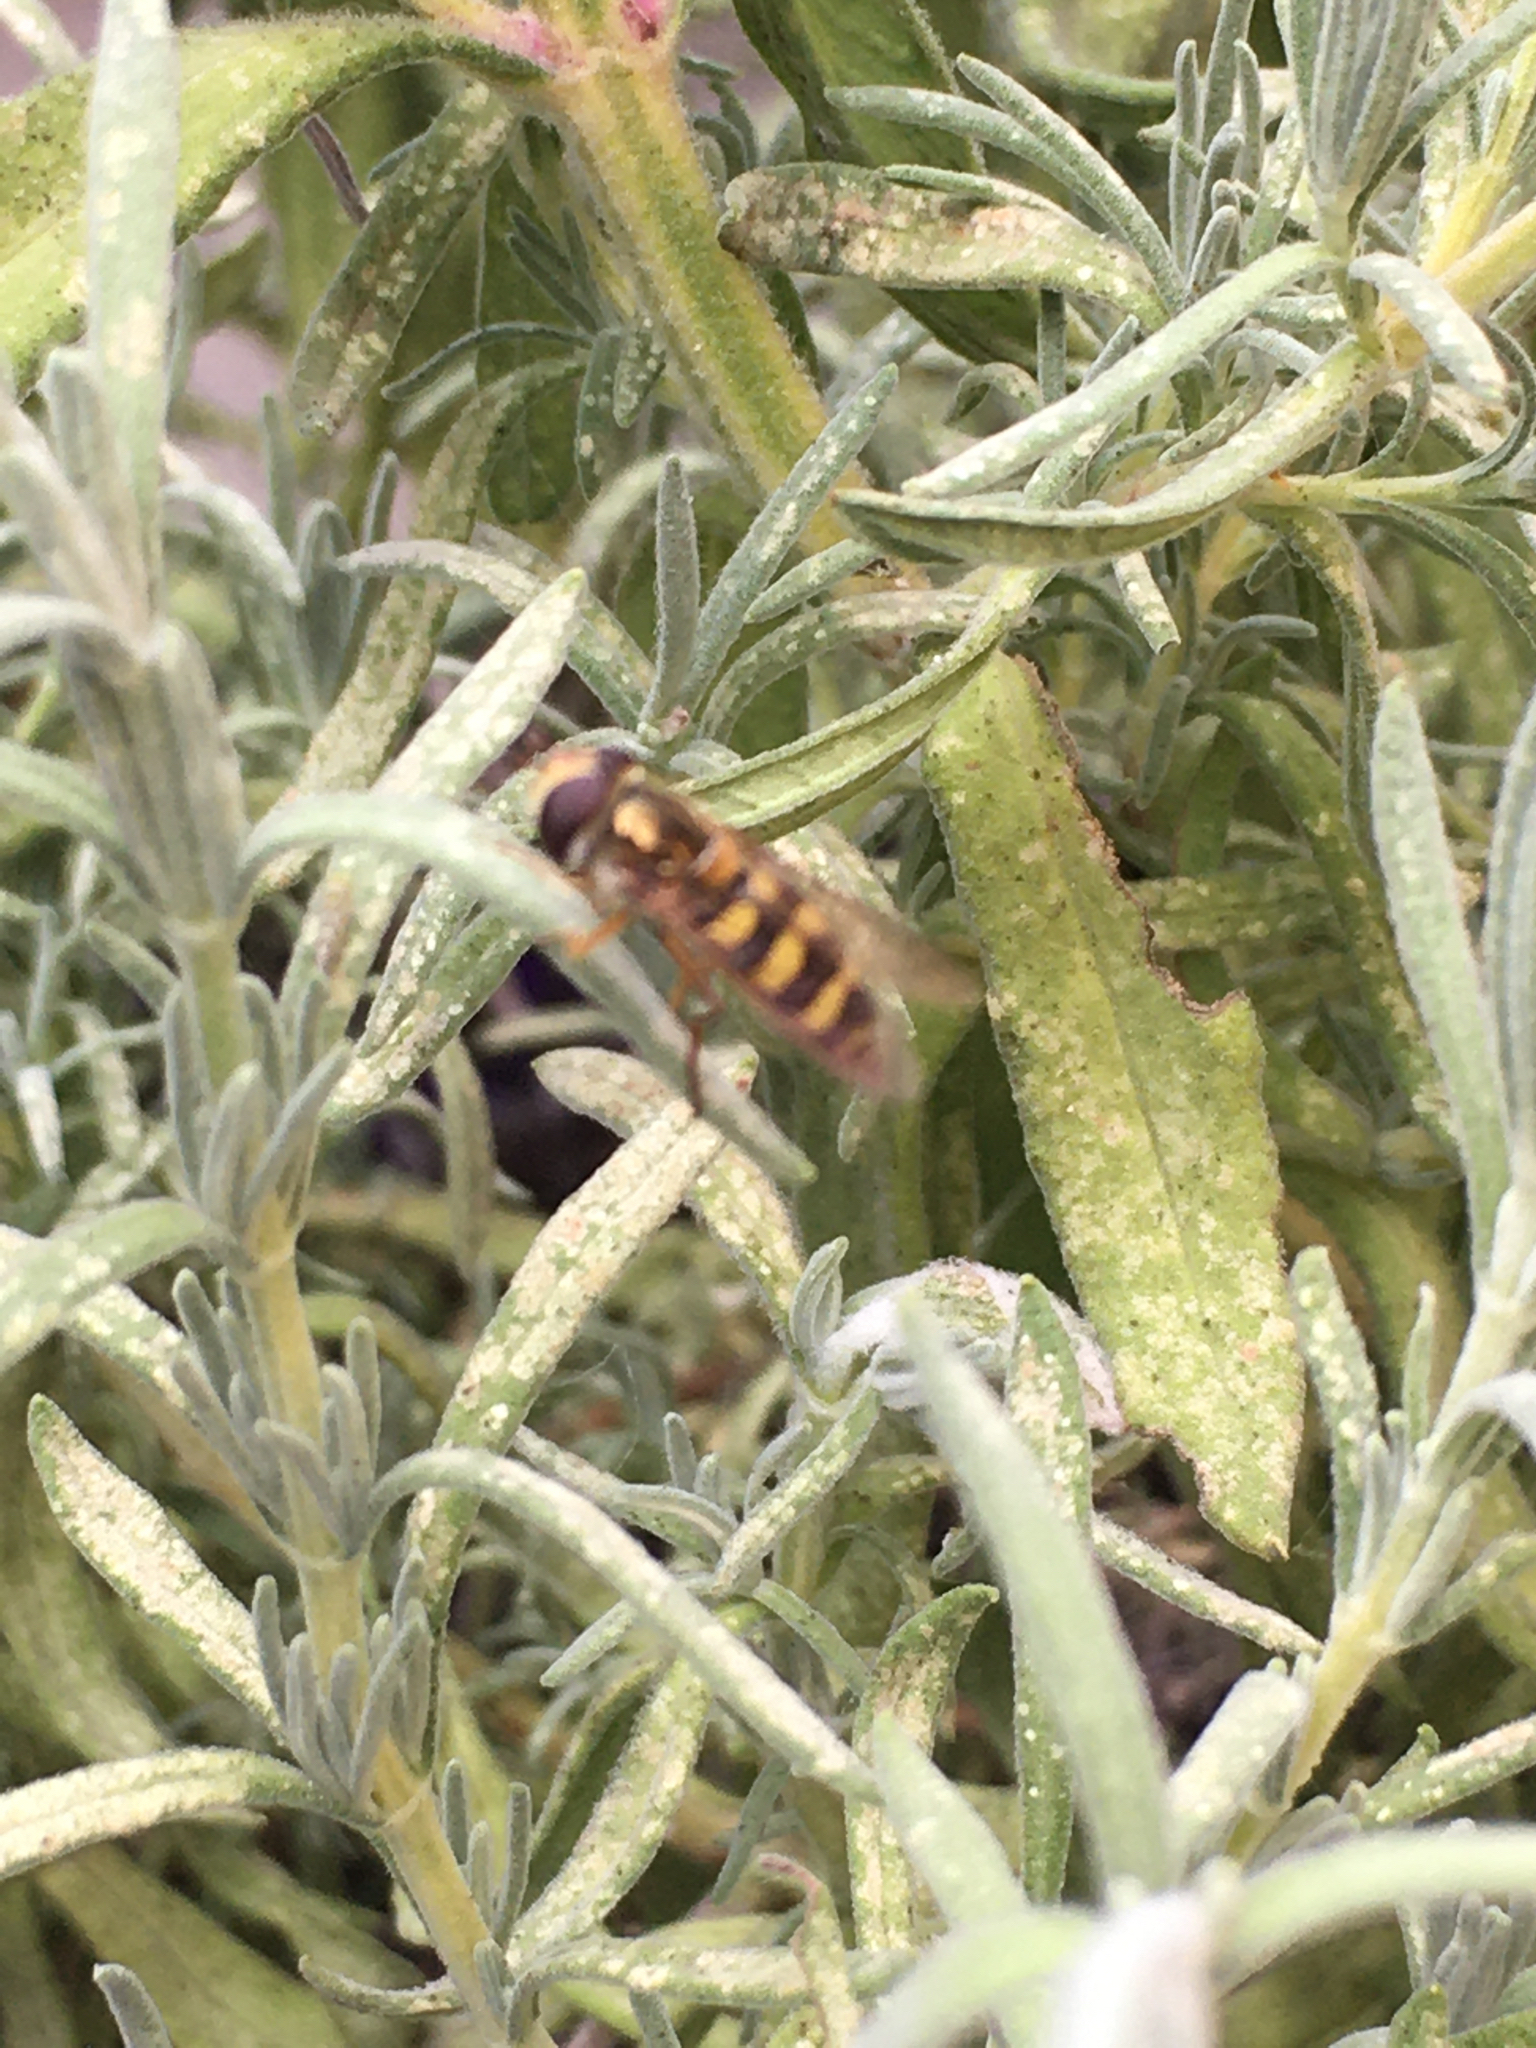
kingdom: Animalia
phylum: Arthropoda
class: Insecta
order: Diptera
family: Syrphidae
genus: Eupeodes
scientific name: Eupeodes fumipennis
